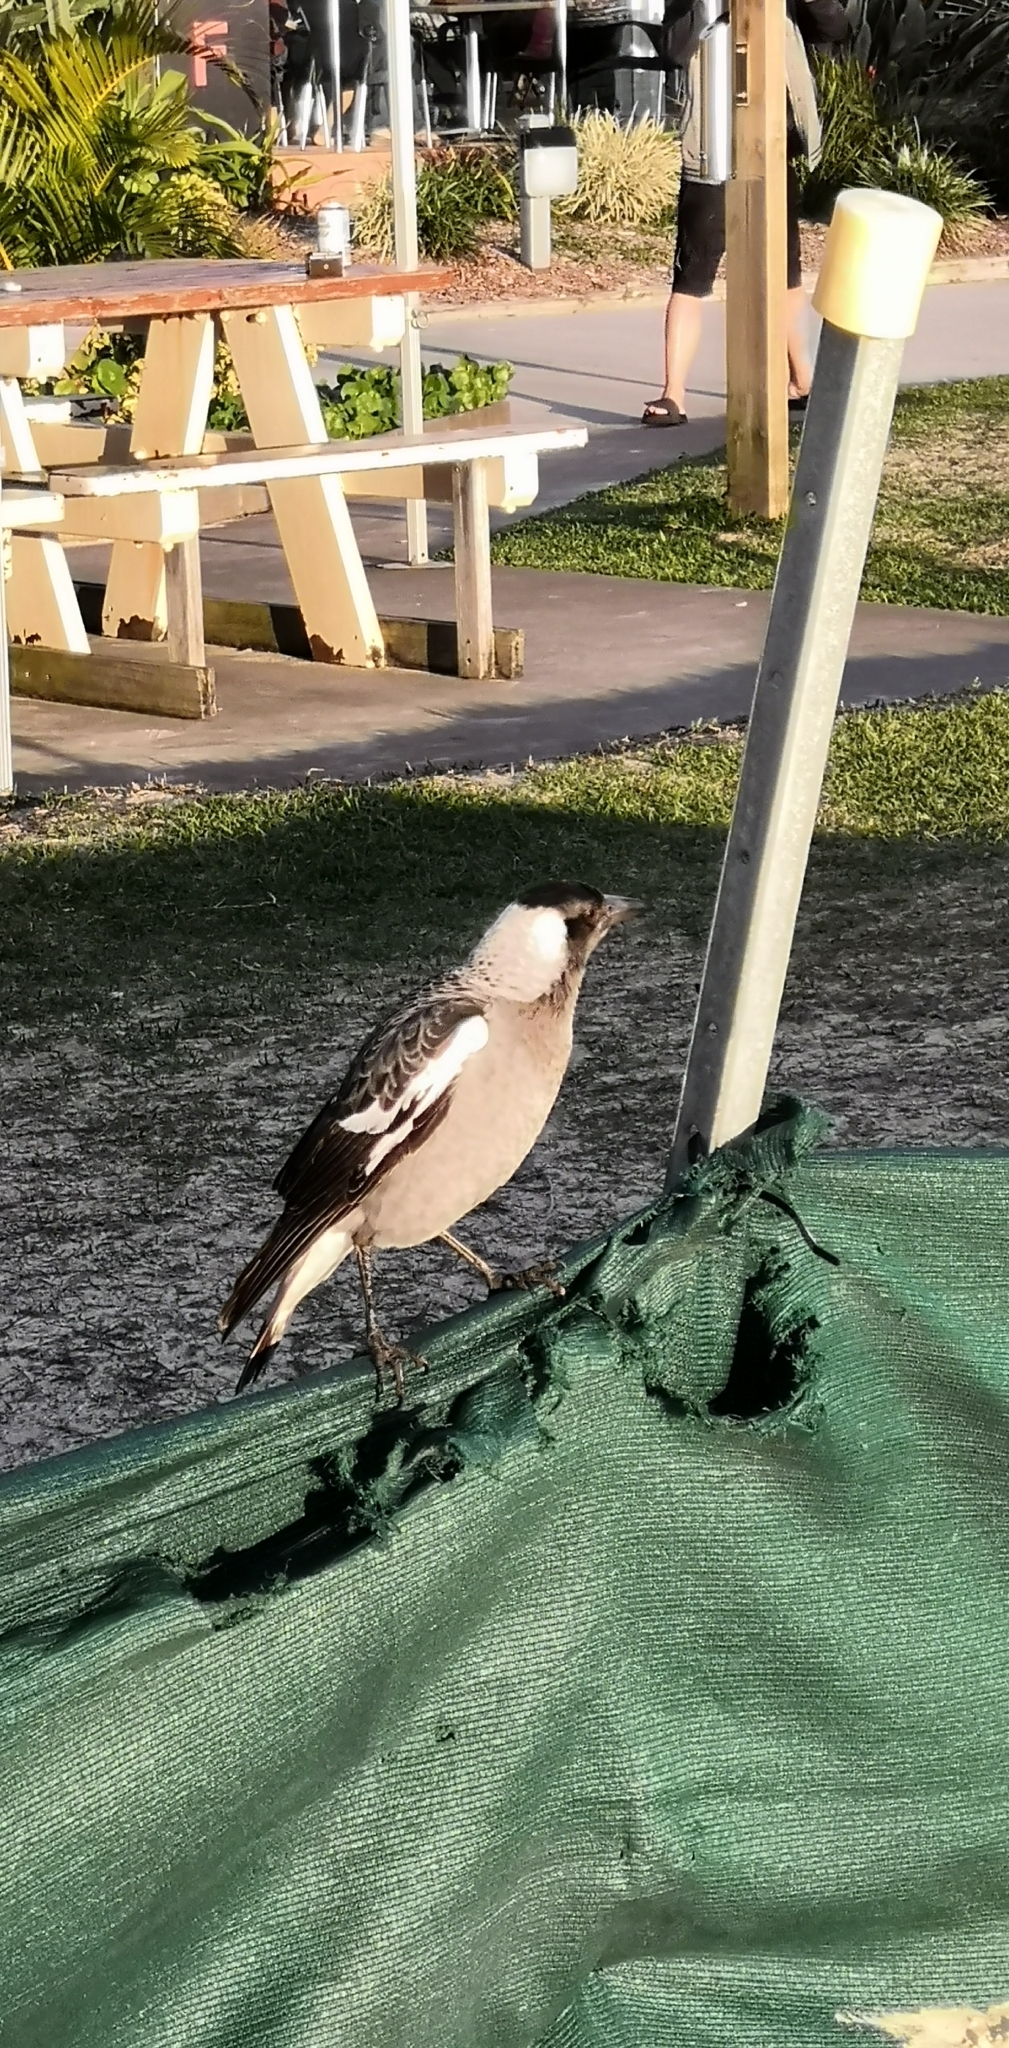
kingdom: Animalia
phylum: Chordata
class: Aves
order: Passeriformes
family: Cracticidae
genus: Gymnorhina
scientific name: Gymnorhina tibicen
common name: Australian magpie
